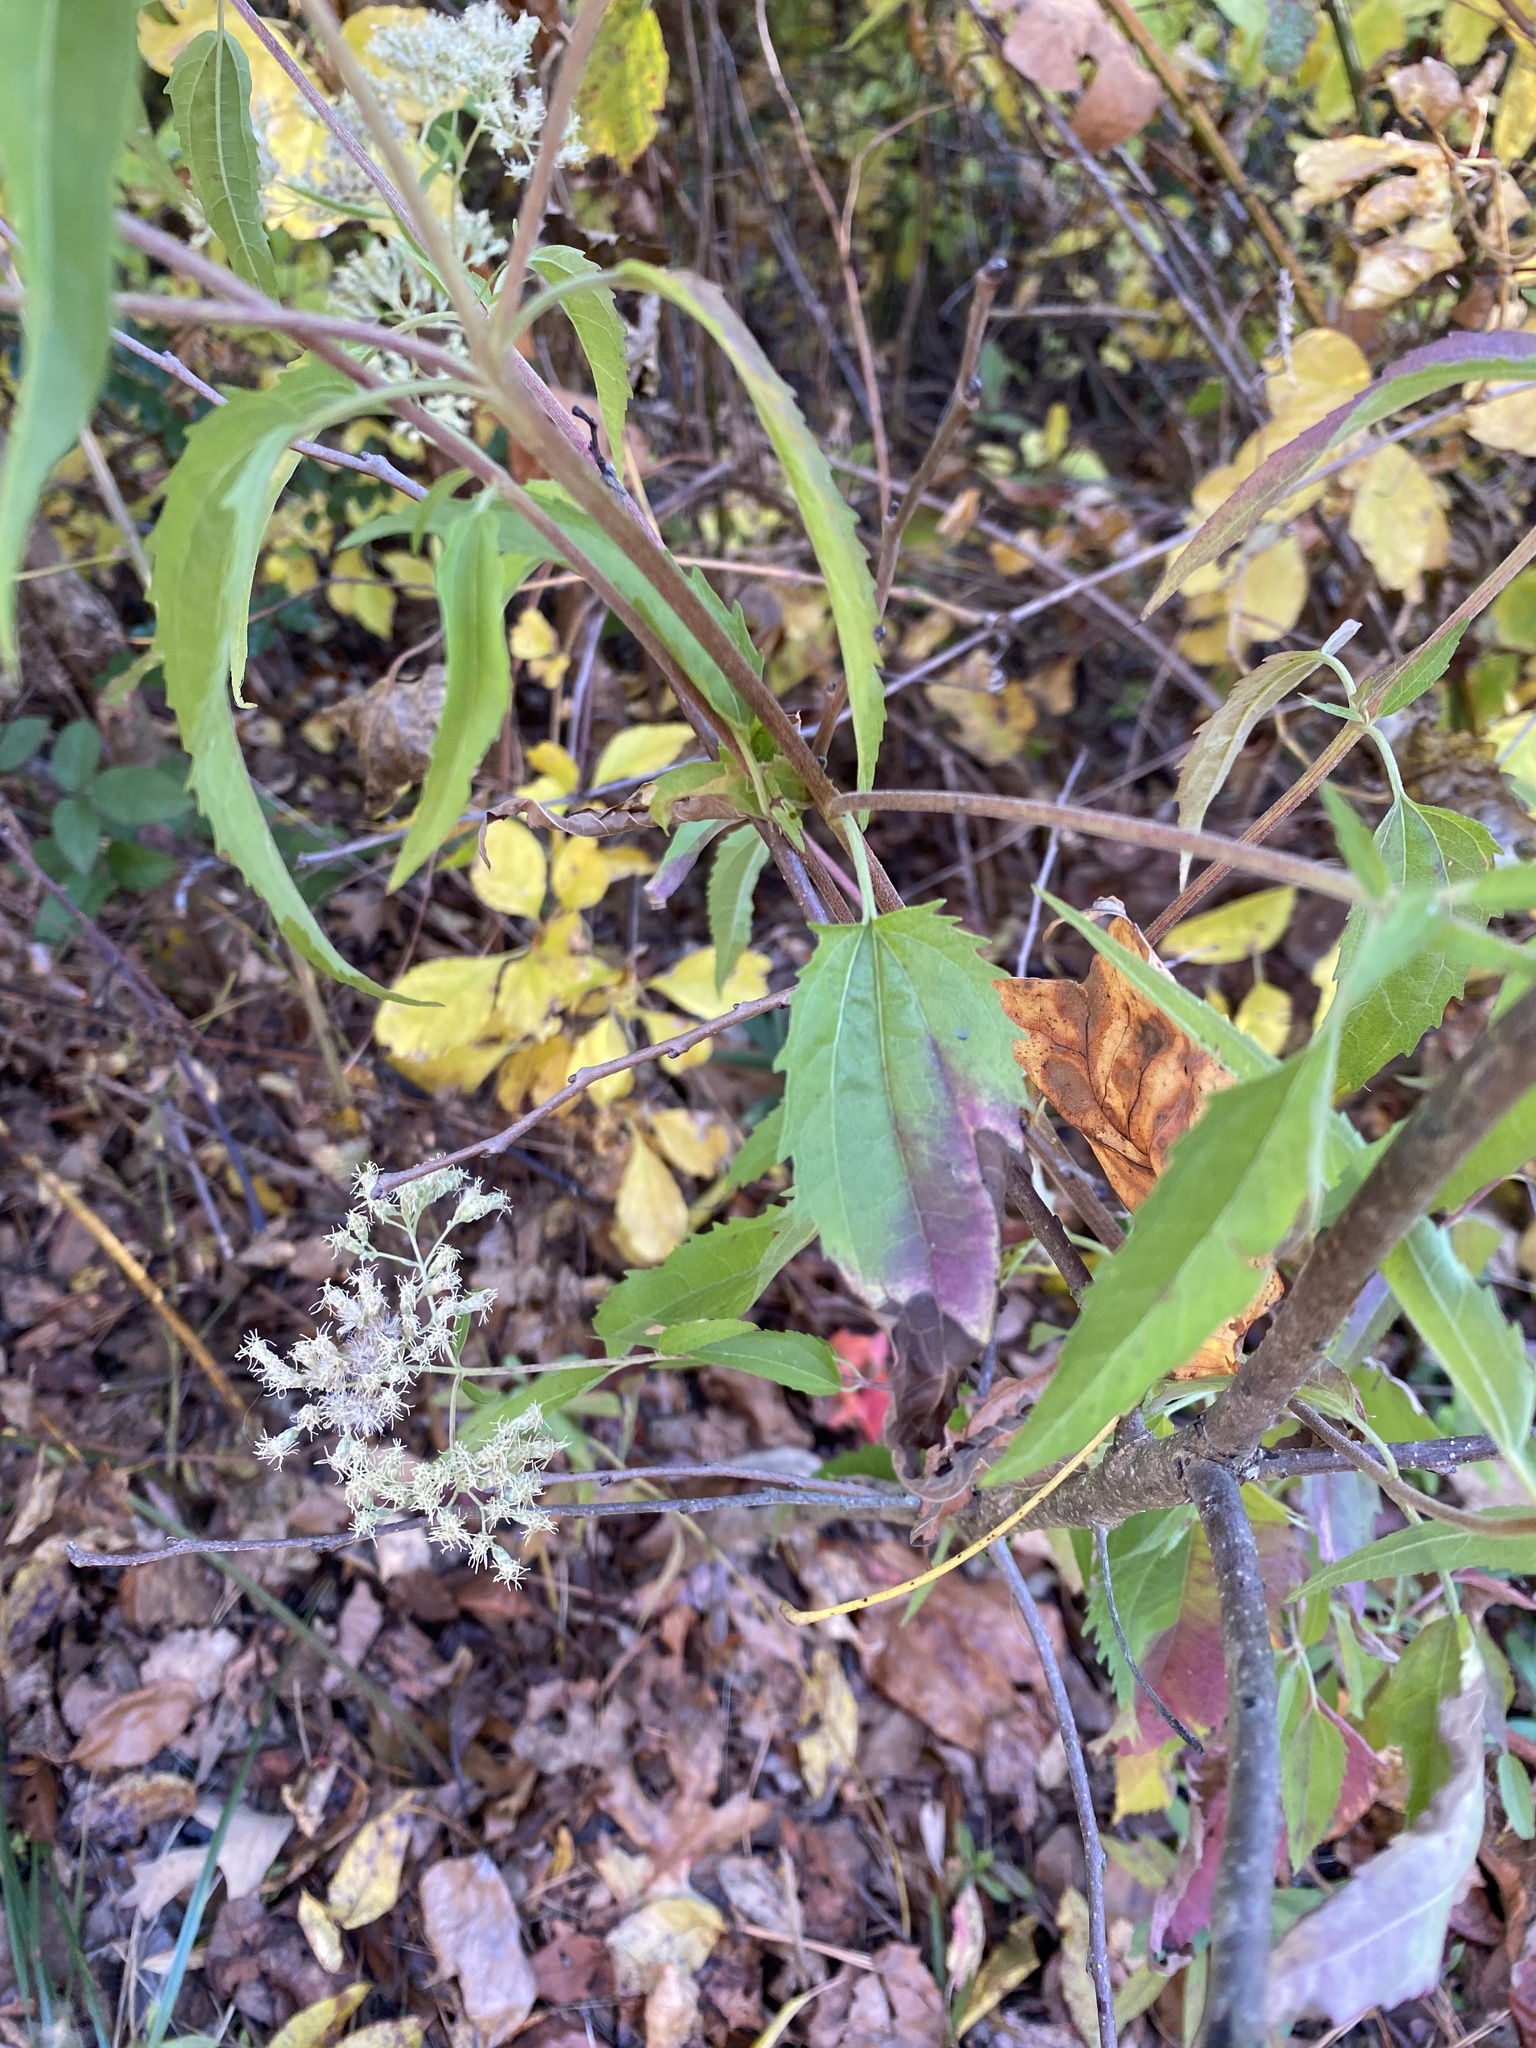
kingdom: Plantae
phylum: Tracheophyta
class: Magnoliopsida
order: Asterales
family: Asteraceae
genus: Eupatorium
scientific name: Eupatorium serotinum
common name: Late boneset
